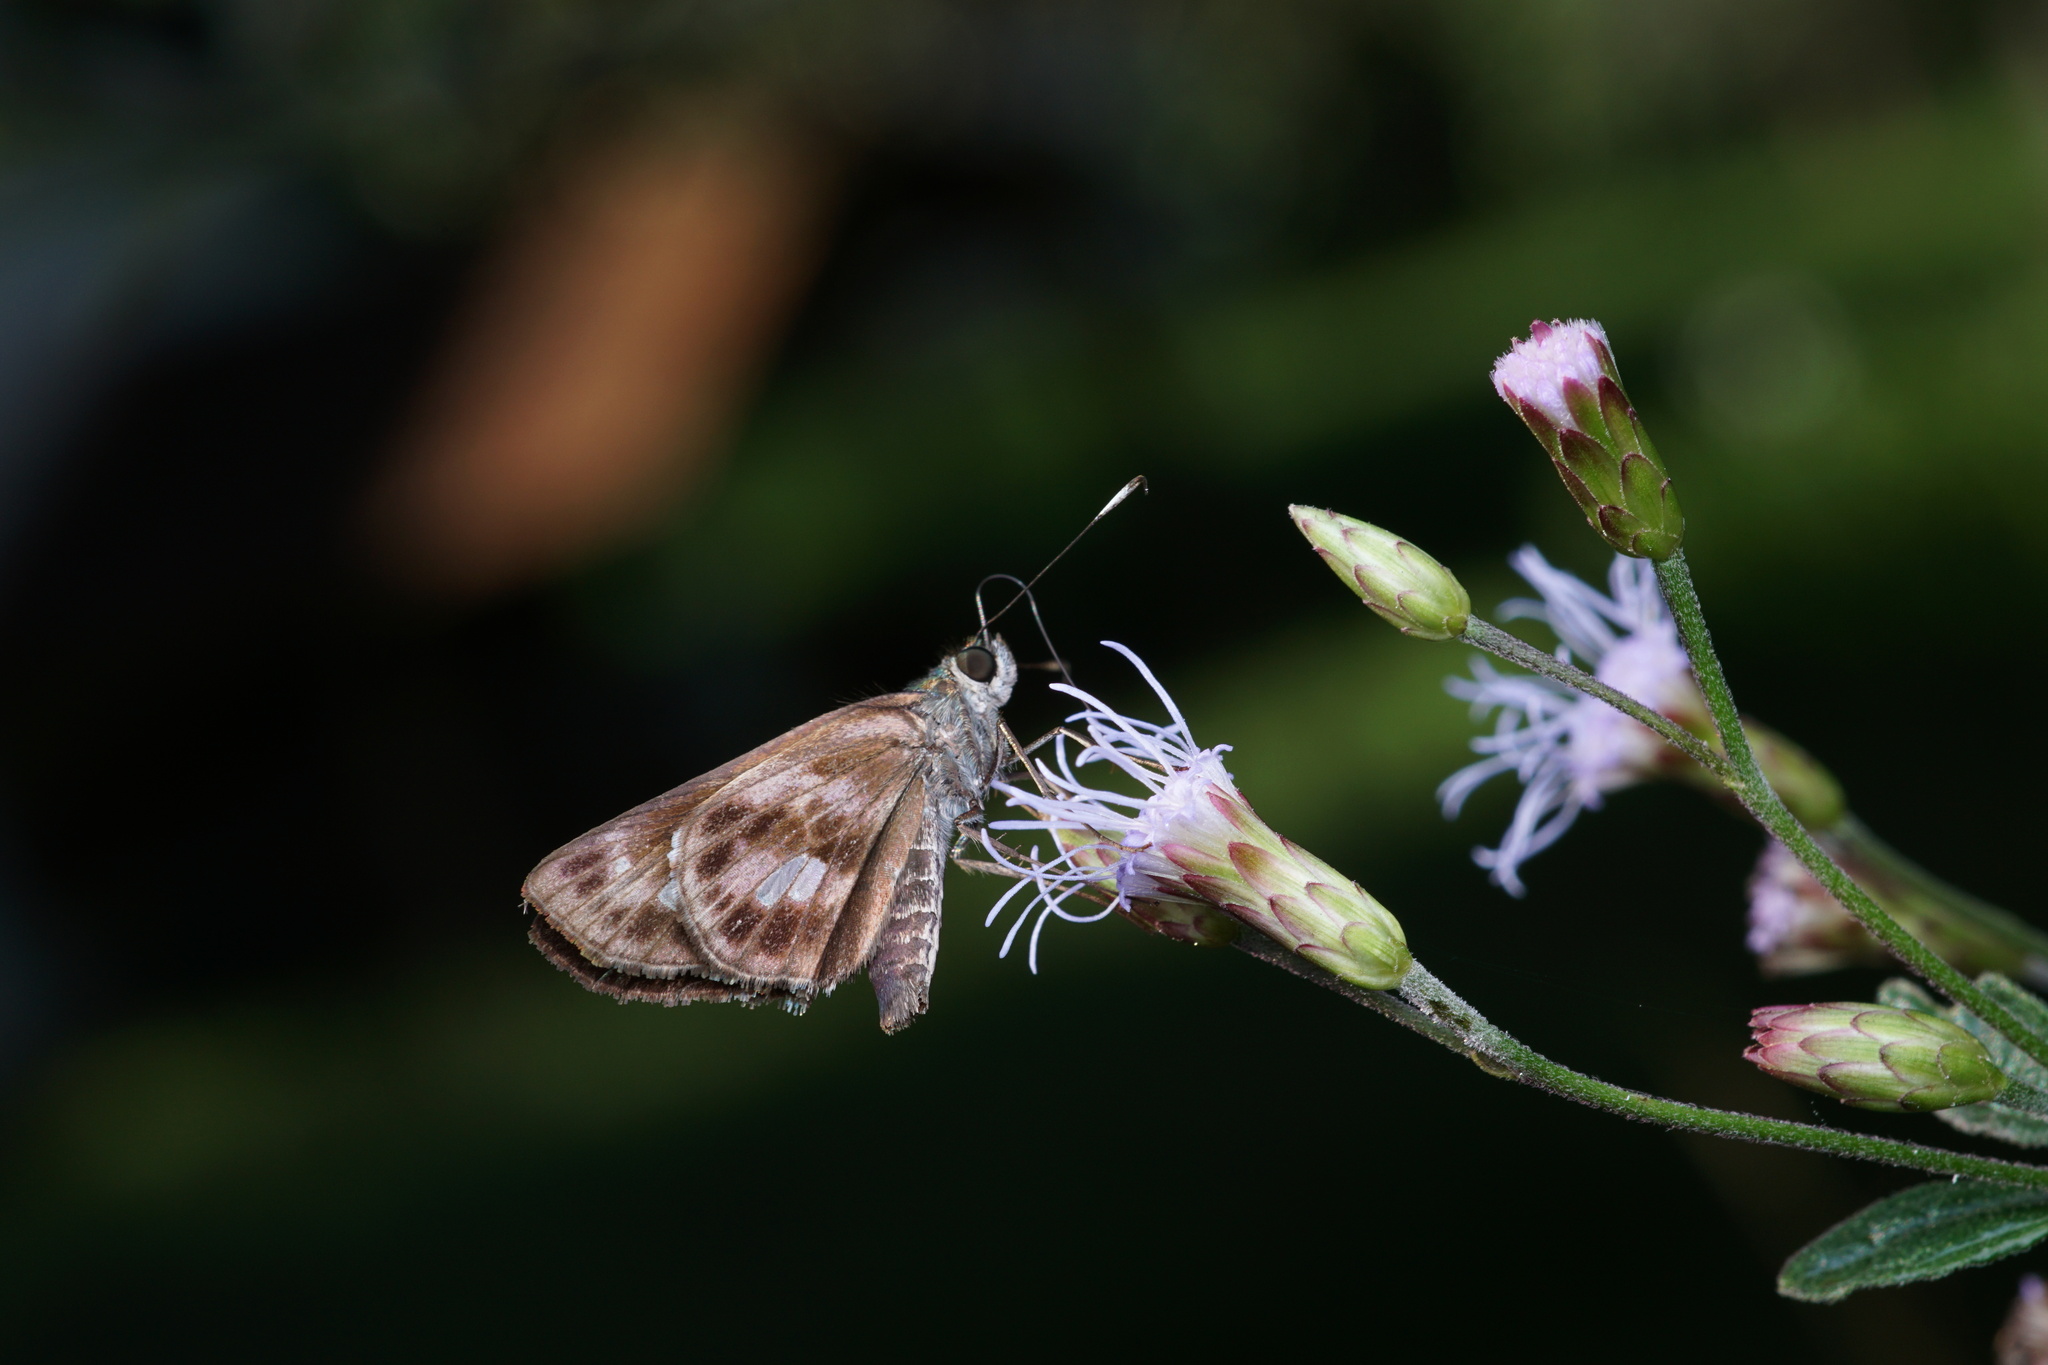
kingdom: Animalia
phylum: Arthropoda
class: Insecta
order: Lepidoptera
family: Hesperiidae
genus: Justinia
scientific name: Justinia kora
